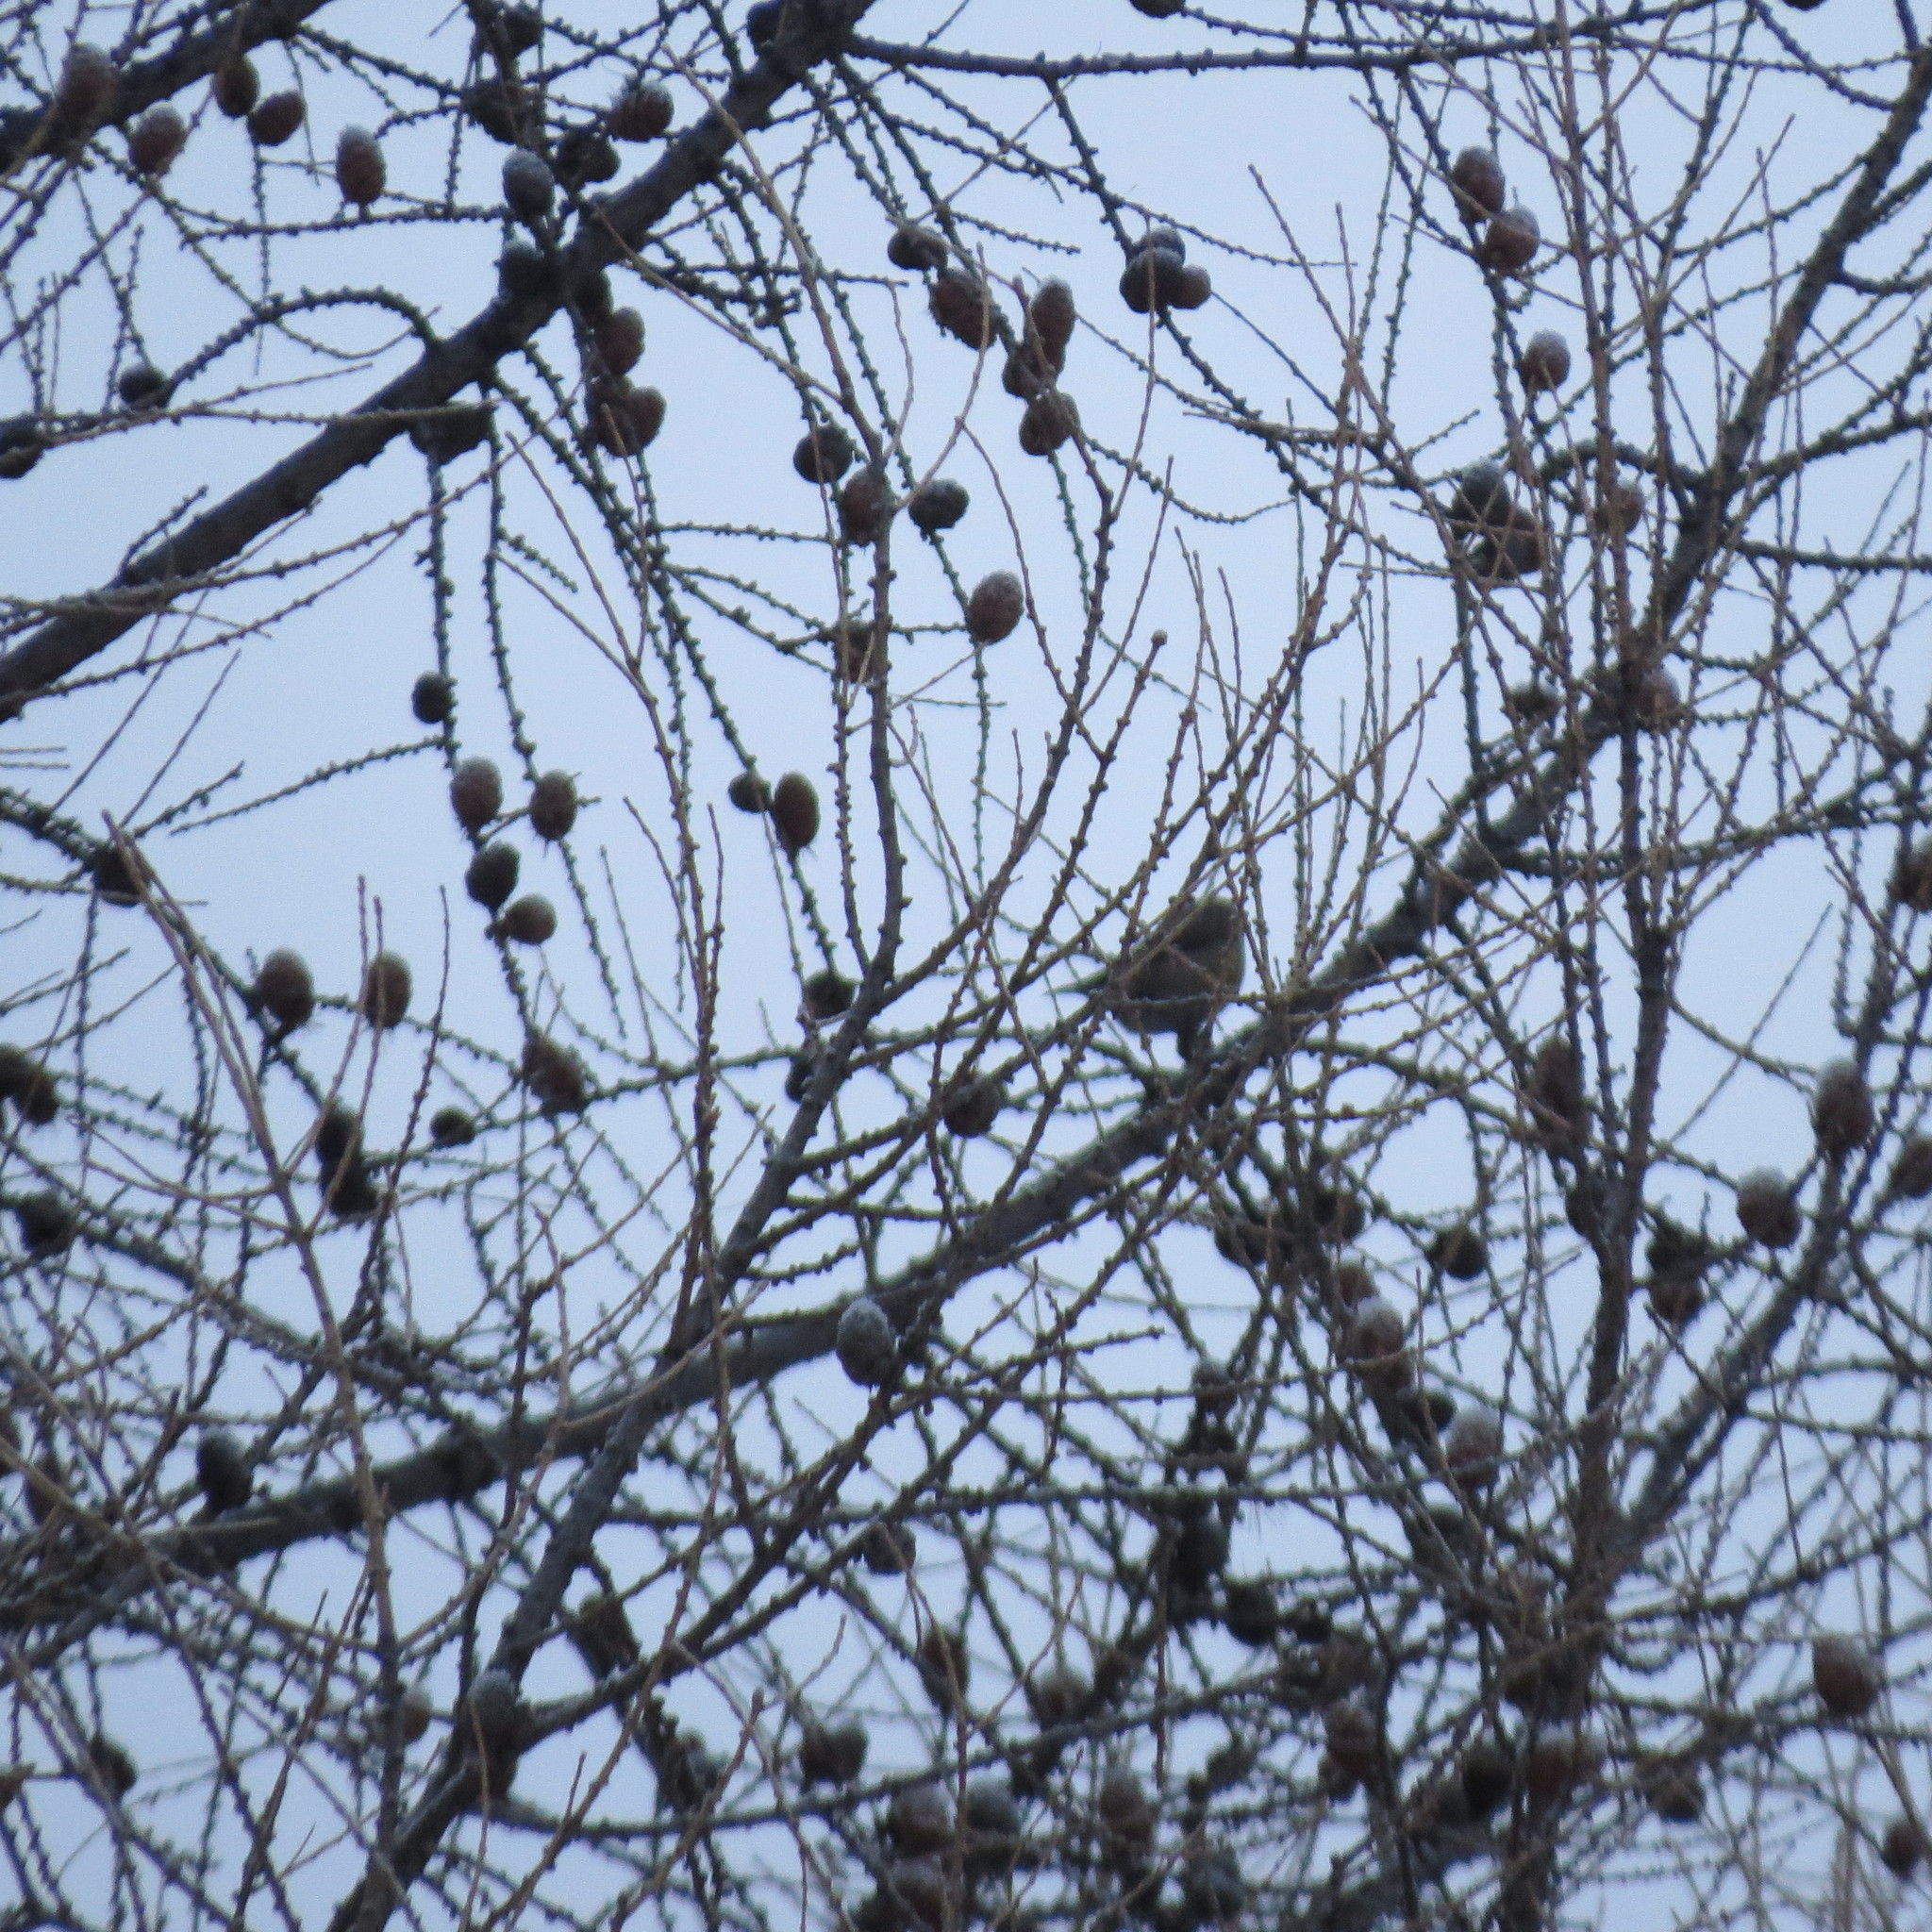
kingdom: Animalia
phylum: Chordata
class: Aves
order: Passeriformes
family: Fringillidae
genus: Pyrrhula
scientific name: Pyrrhula pyrrhula
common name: Eurasian bullfinch
